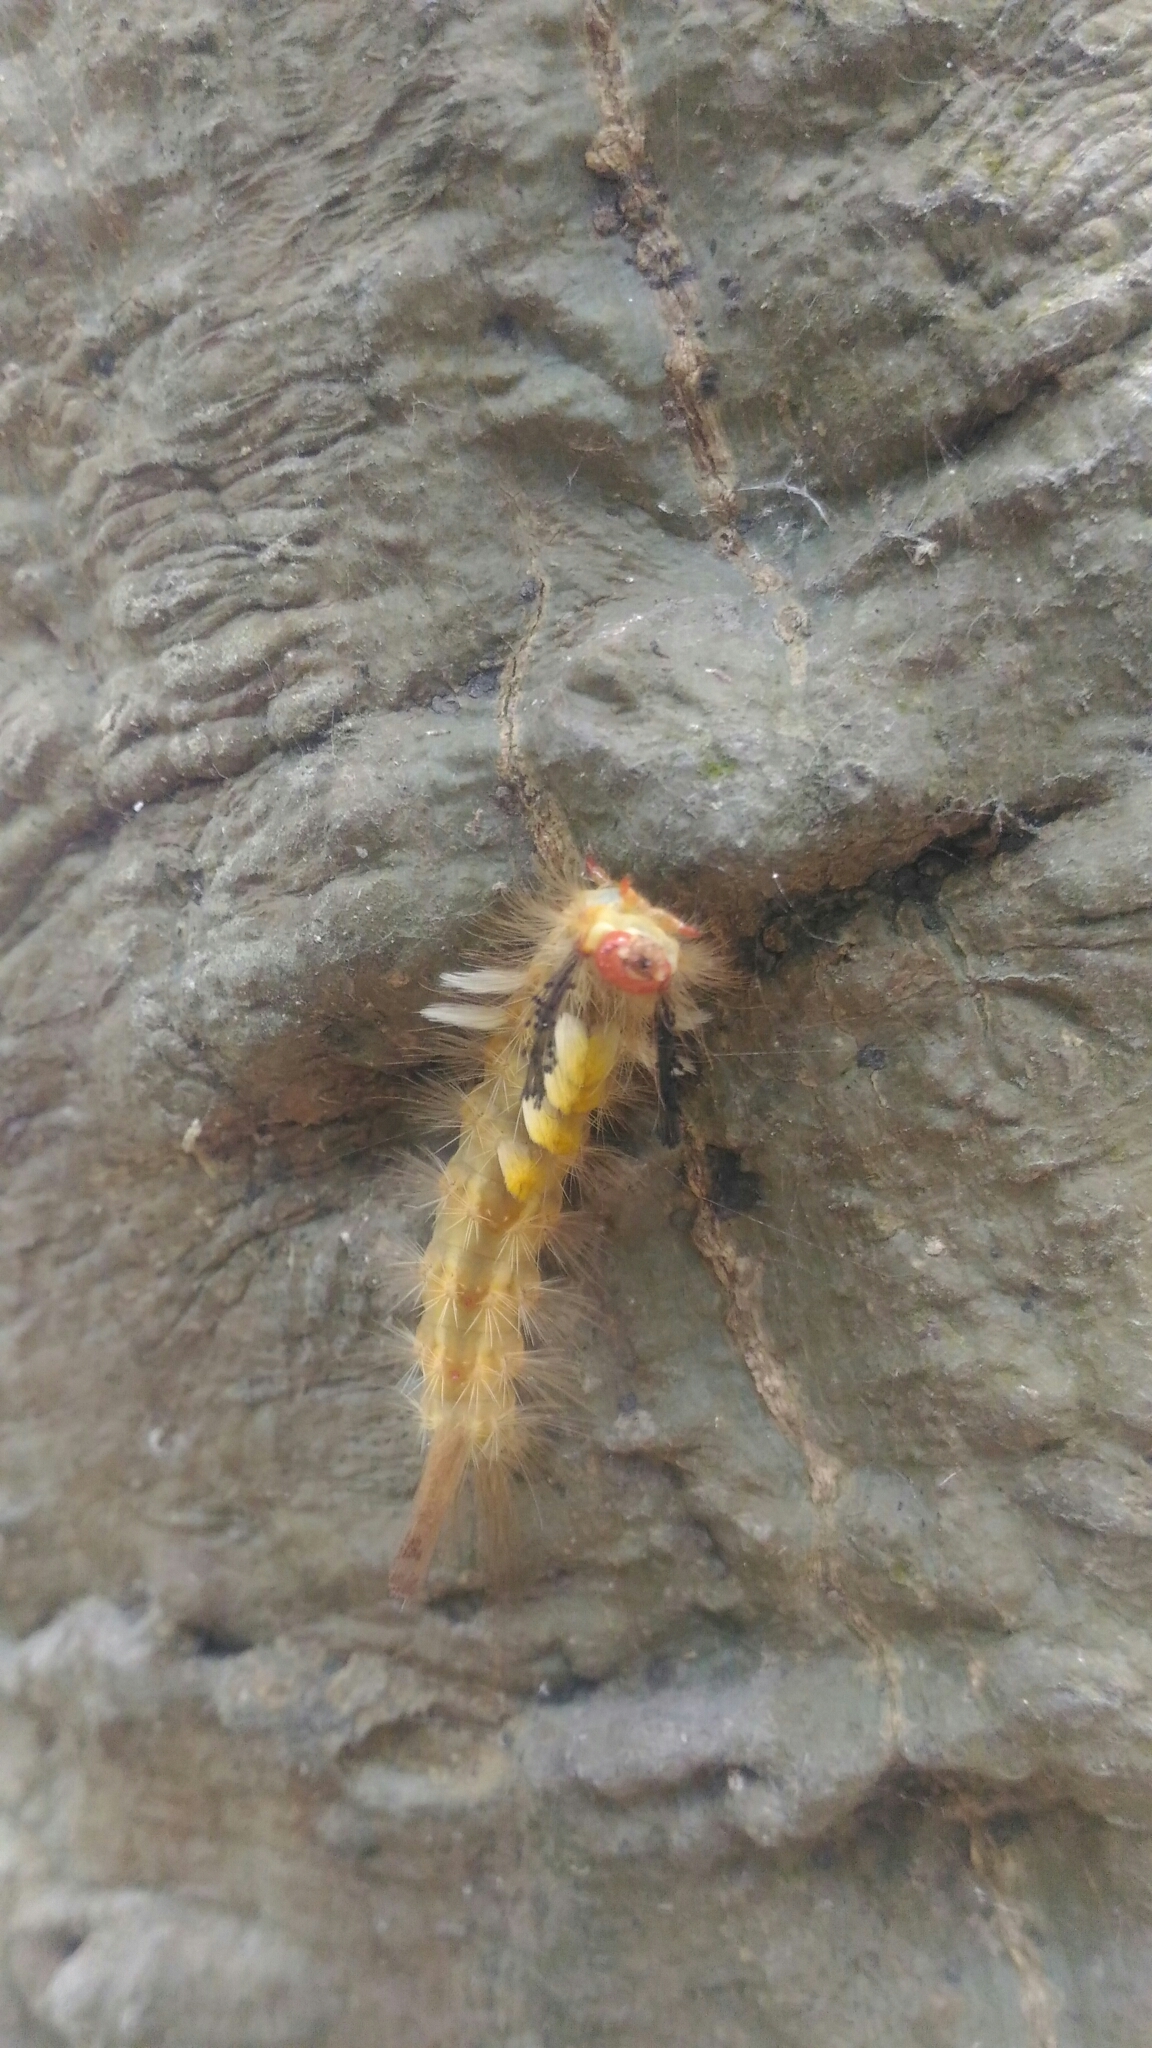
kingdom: Animalia
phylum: Arthropoda
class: Insecta
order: Lepidoptera
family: Erebidae
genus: Orgyia
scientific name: Orgyia postica
